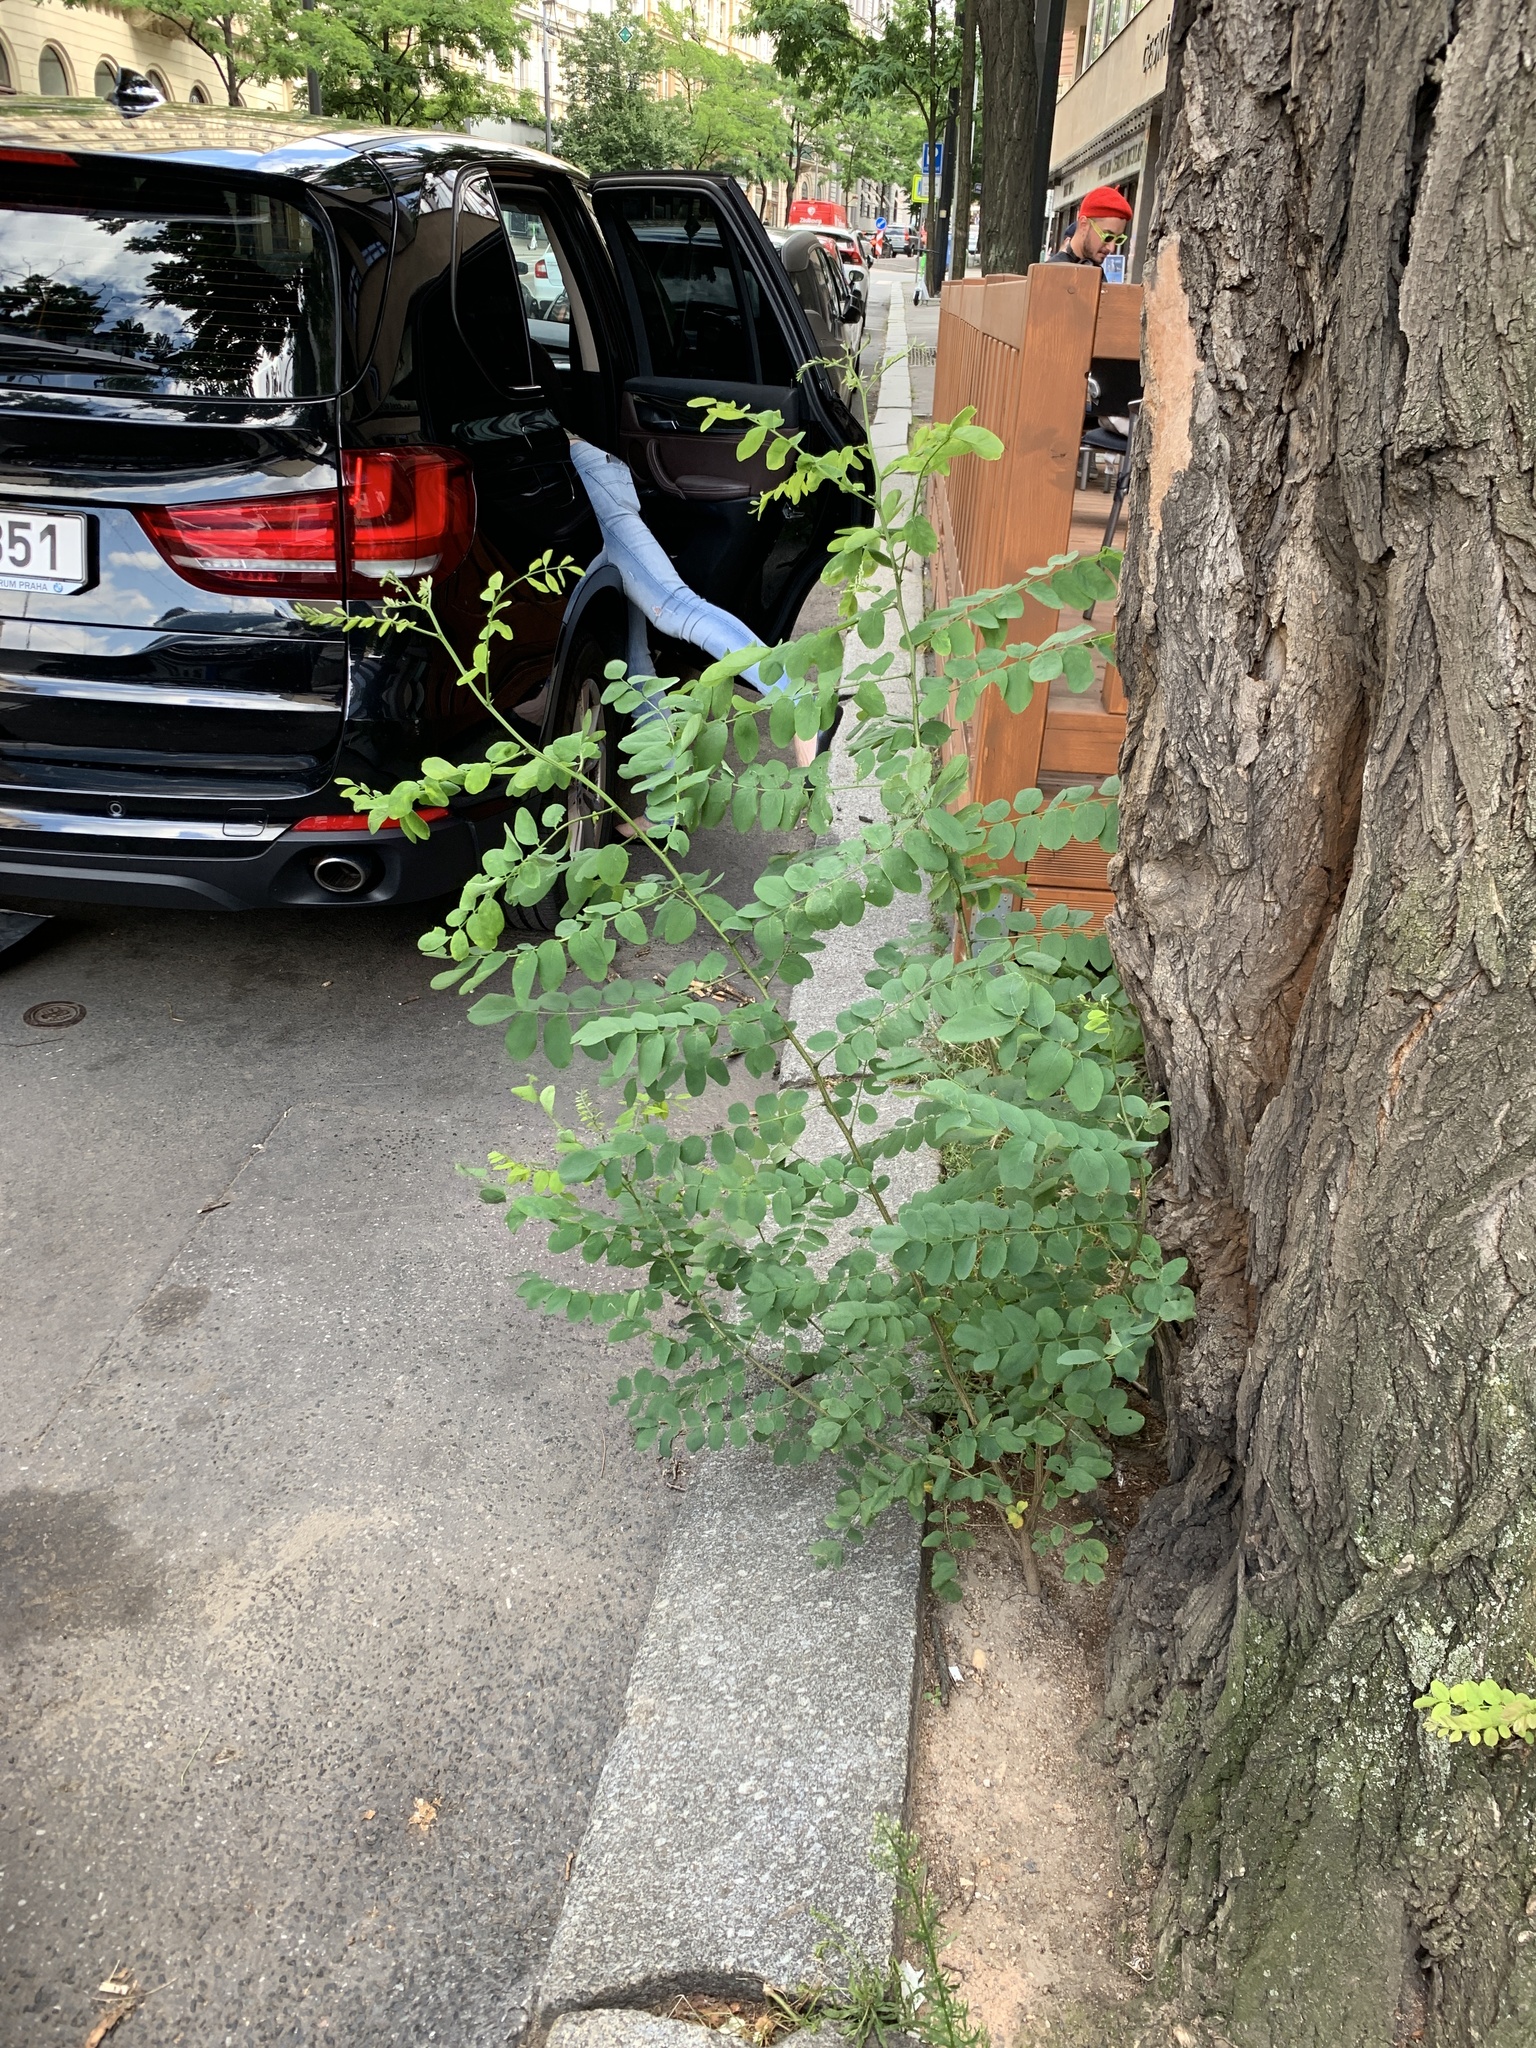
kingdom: Plantae
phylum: Tracheophyta
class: Magnoliopsida
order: Fabales
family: Fabaceae
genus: Robinia
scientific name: Robinia pseudoacacia
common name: Black locust
